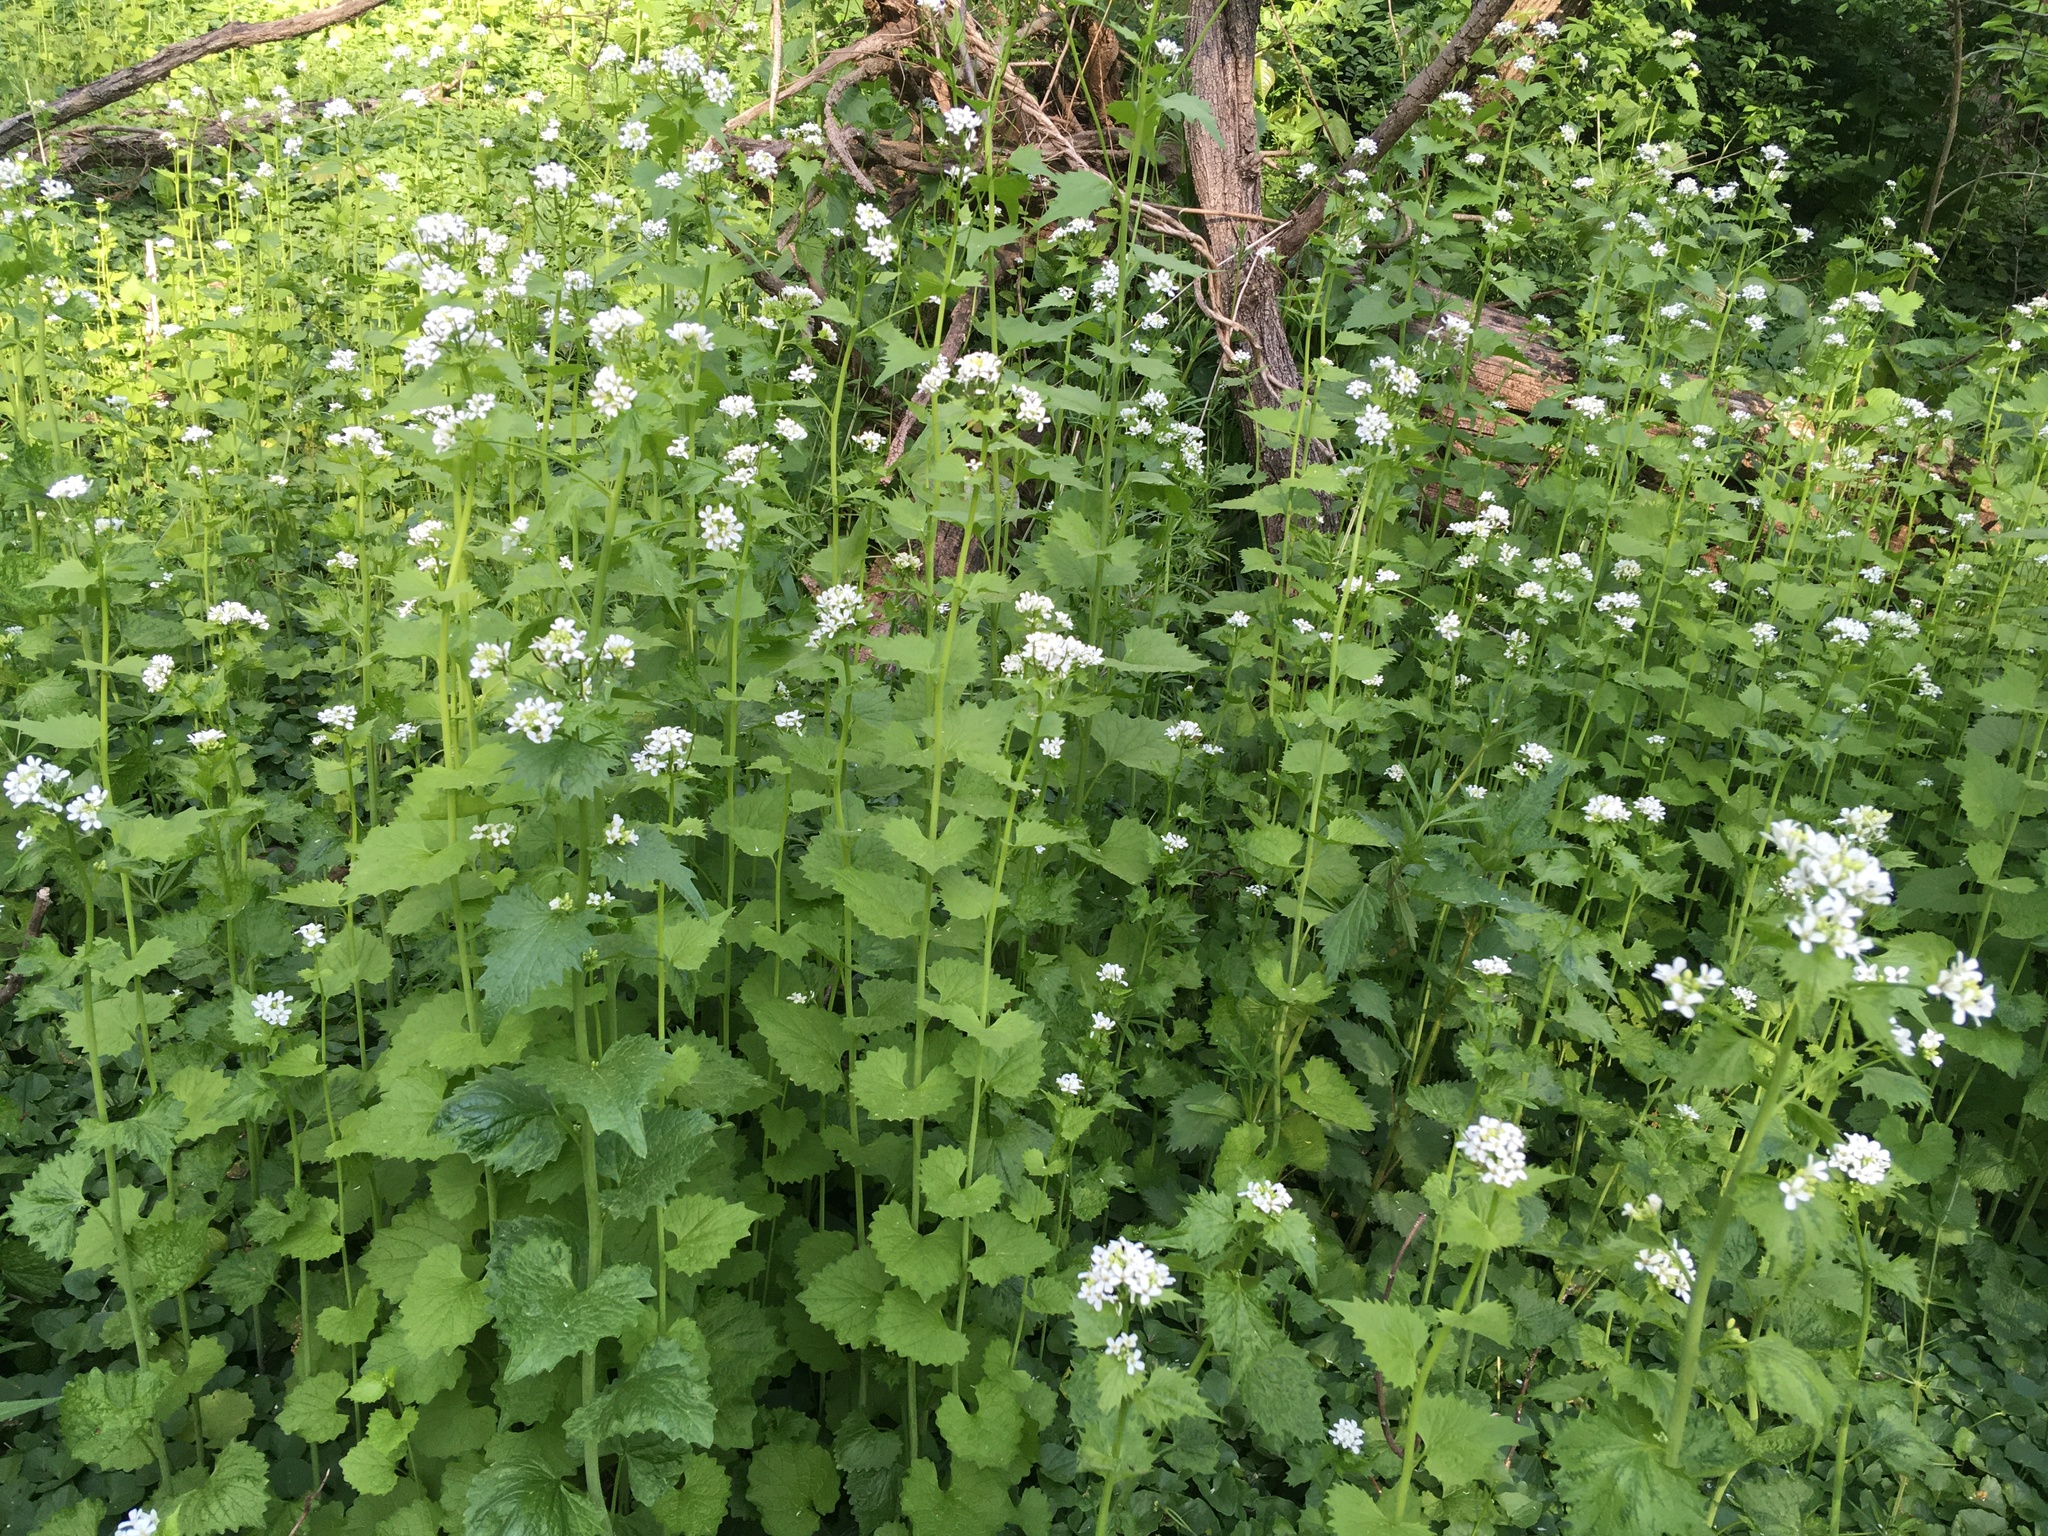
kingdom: Plantae
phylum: Tracheophyta
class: Magnoliopsida
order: Brassicales
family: Brassicaceae
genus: Alliaria
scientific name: Alliaria petiolata
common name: Garlic mustard
